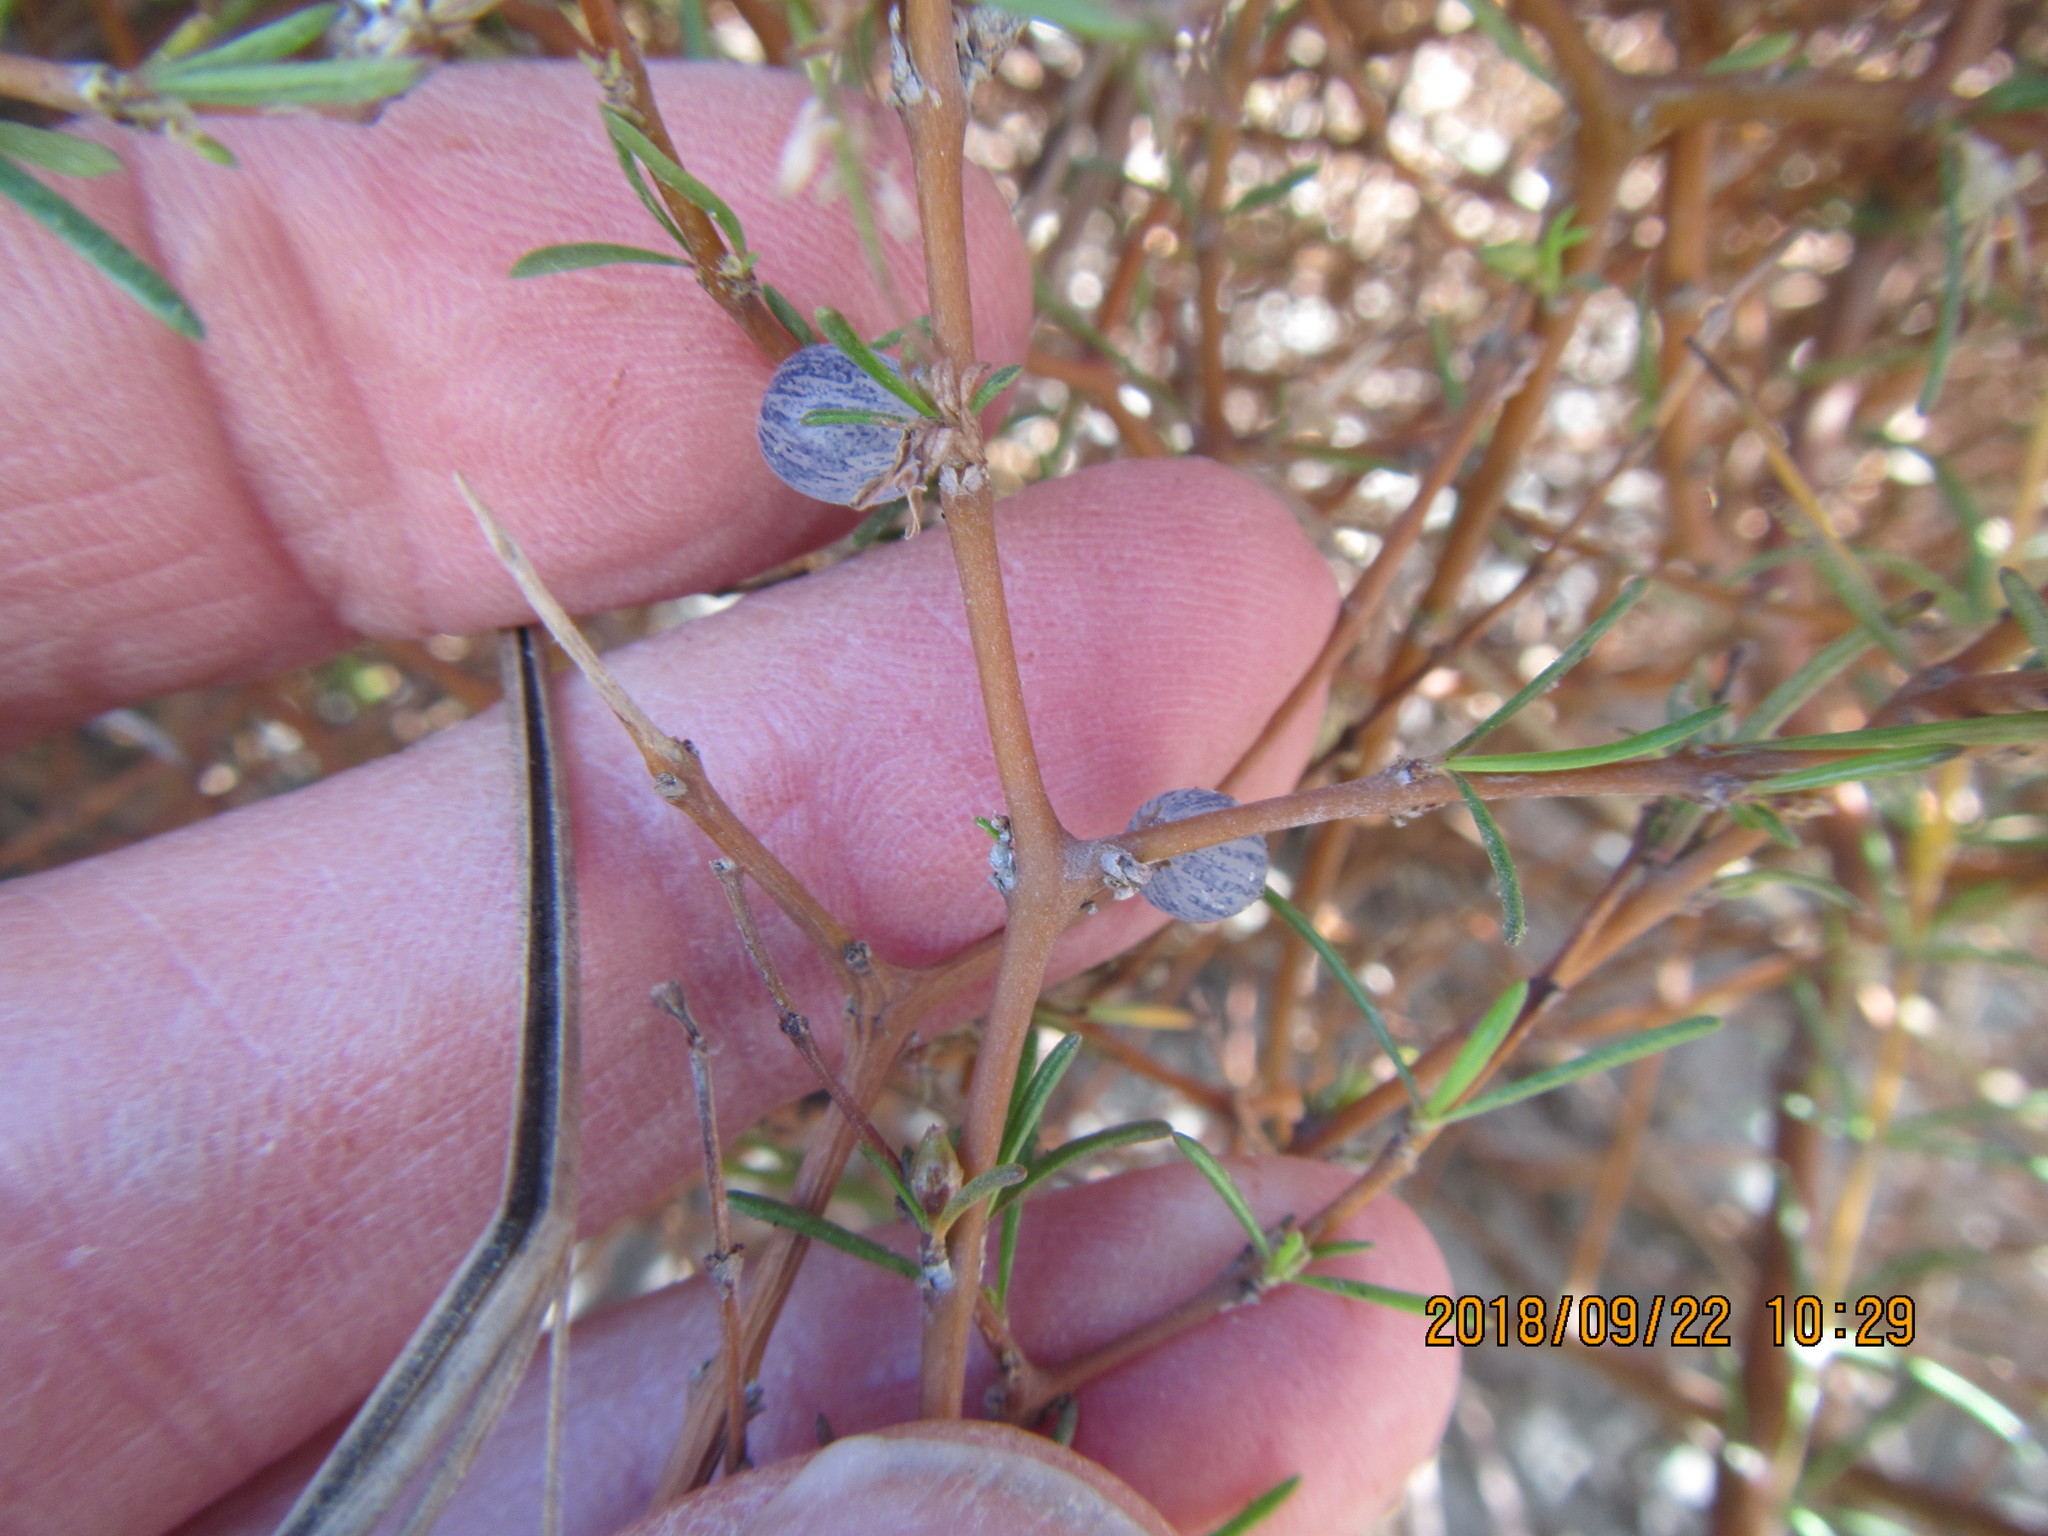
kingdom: Plantae
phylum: Tracheophyta
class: Magnoliopsida
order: Gentianales
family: Rubiaceae
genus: Coprosma
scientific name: Coprosma acerosa
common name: Sand coprosma
